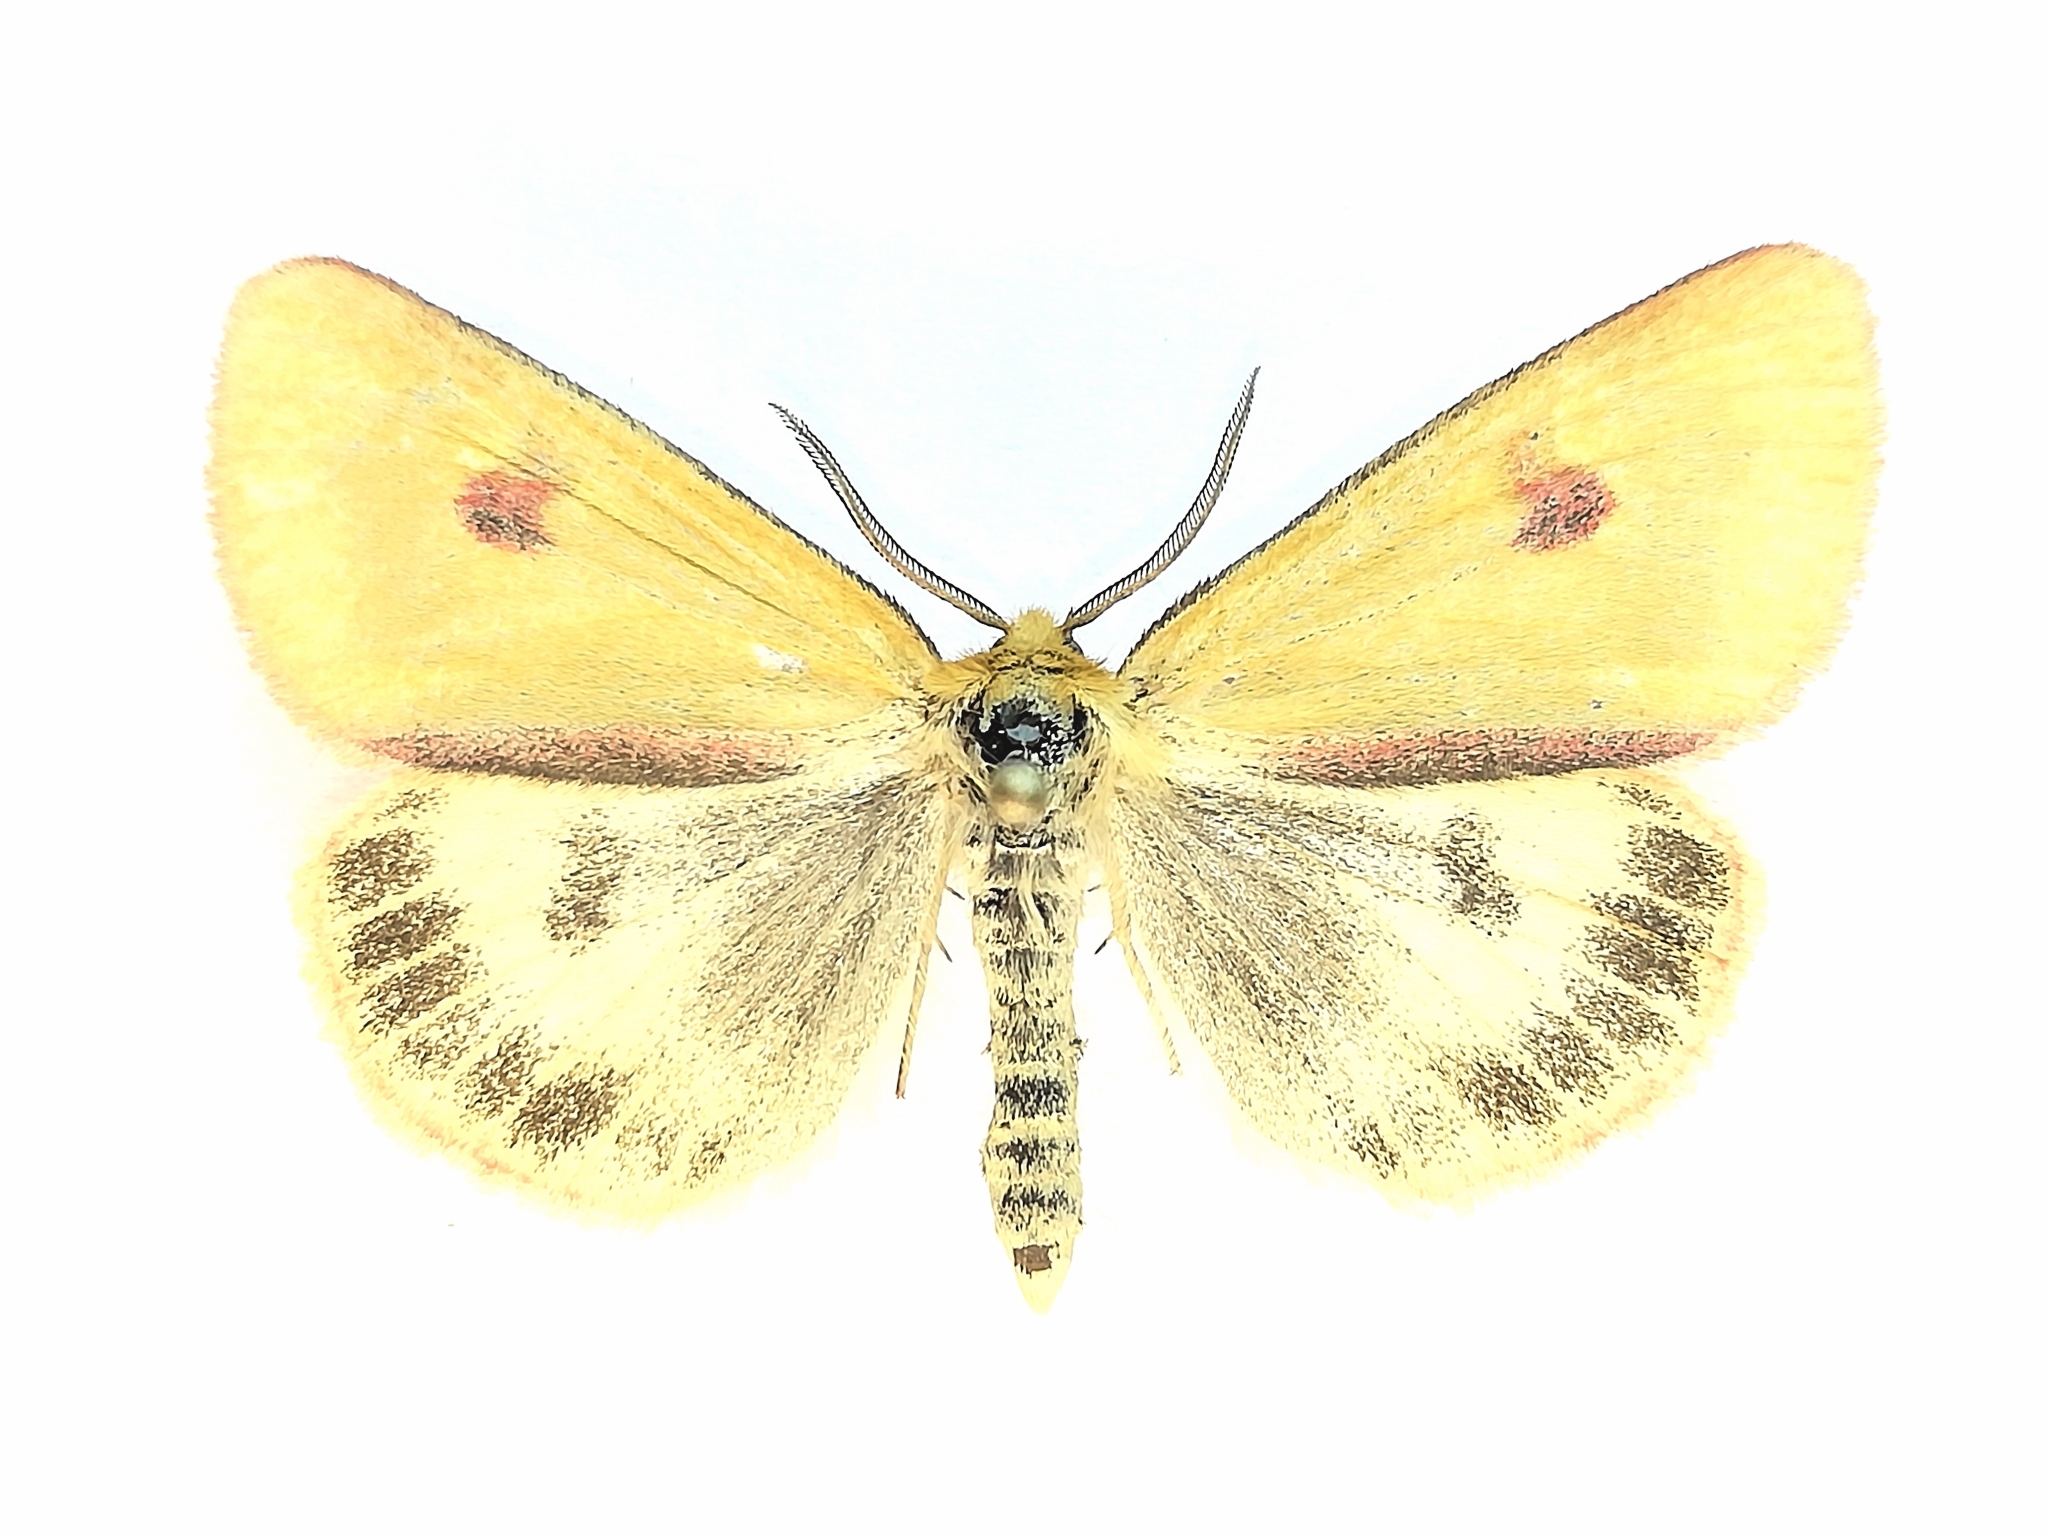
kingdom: Animalia
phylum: Arthropoda
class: Insecta
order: Lepidoptera
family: Erebidae
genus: Diacrisia
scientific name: Diacrisia sannio
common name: Clouded buff
